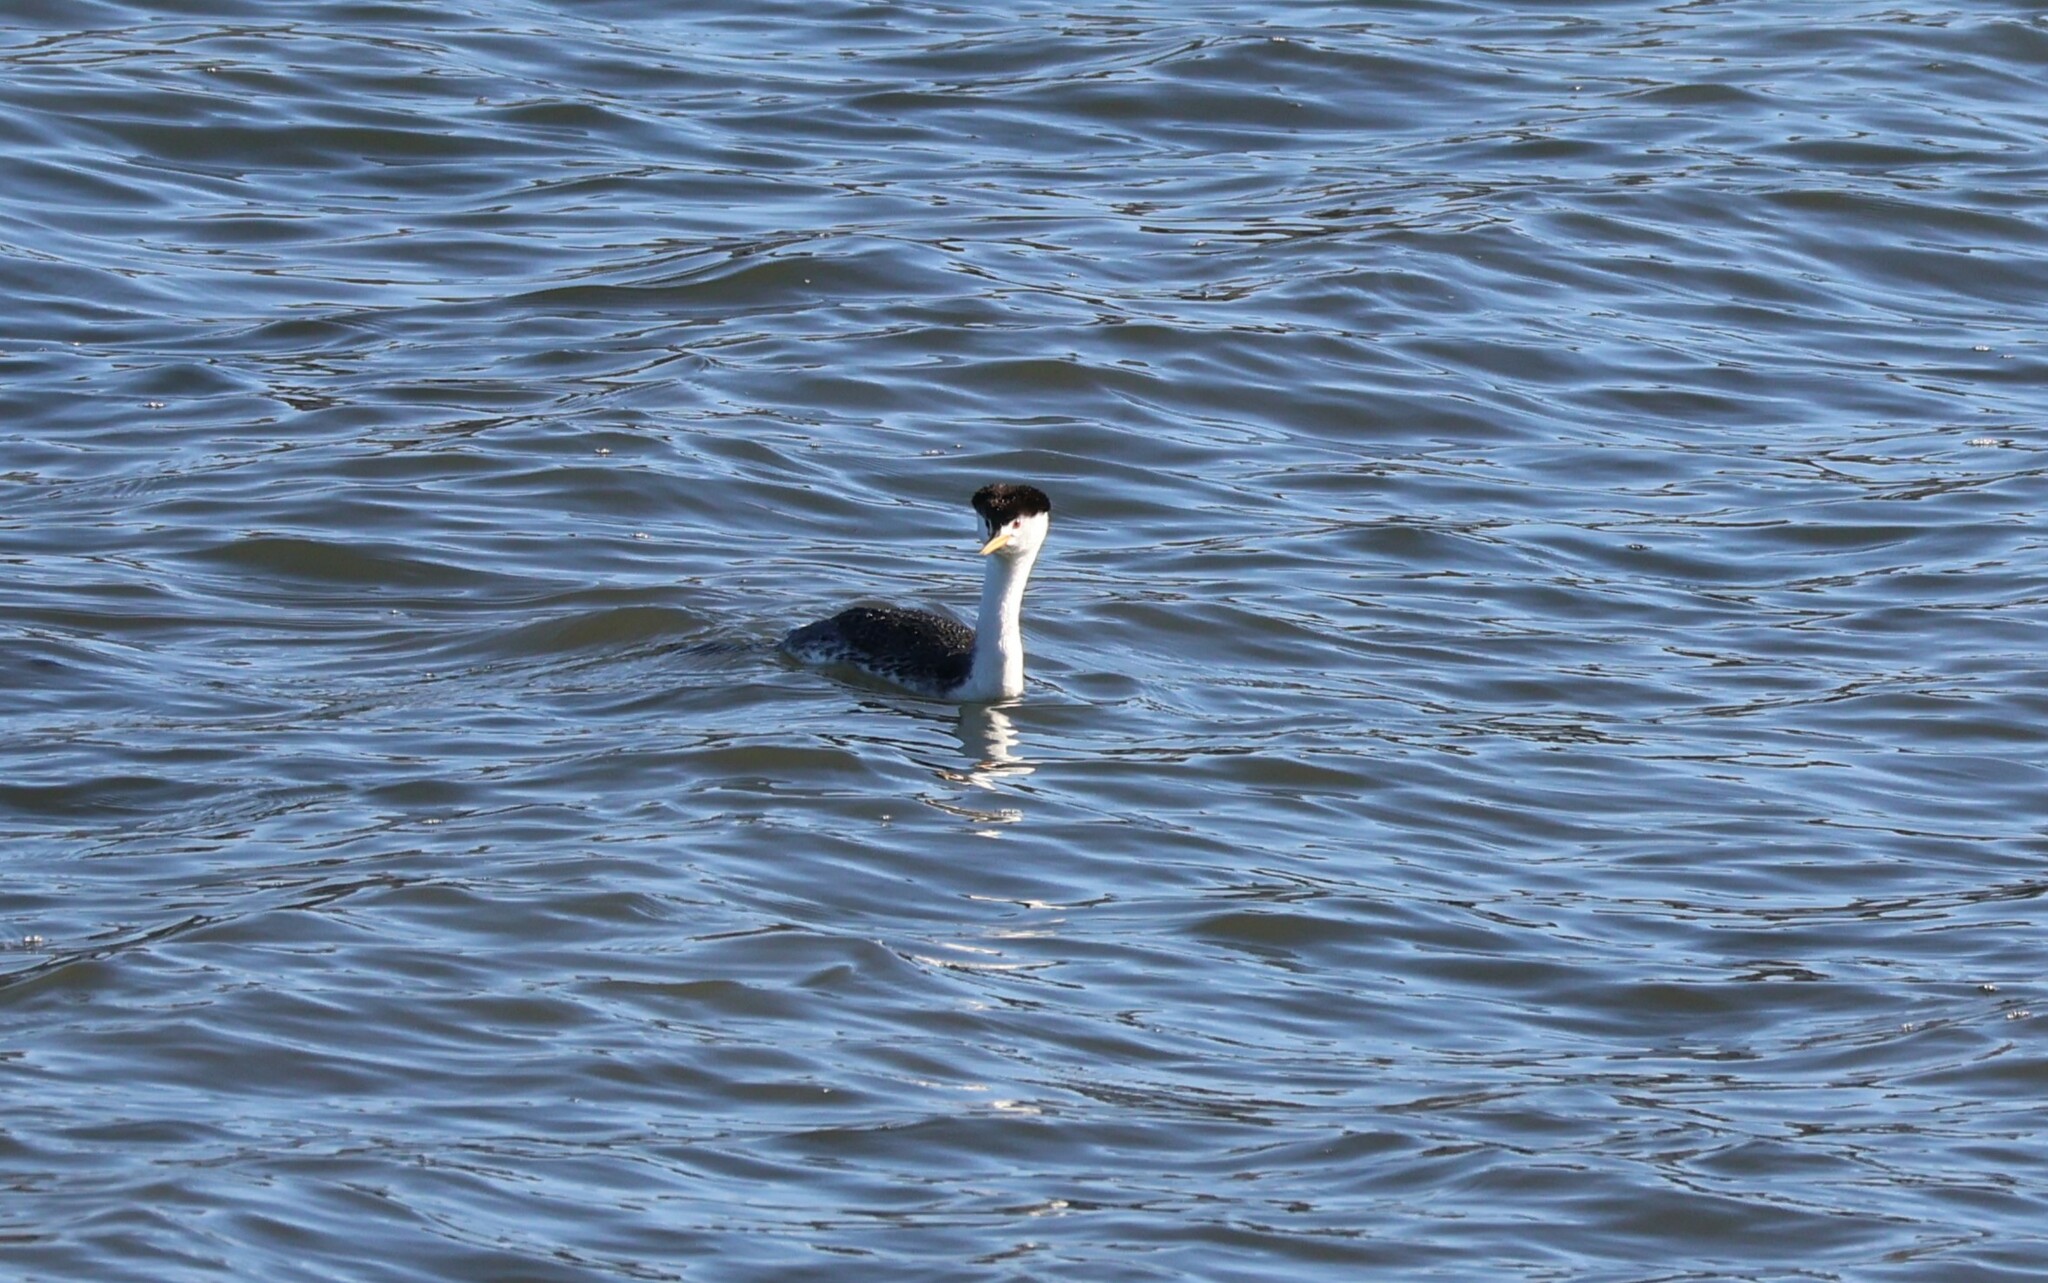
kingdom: Animalia
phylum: Chordata
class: Aves
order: Podicipediformes
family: Podicipedidae
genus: Aechmophorus
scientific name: Aechmophorus clarkii
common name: Clark's grebe
